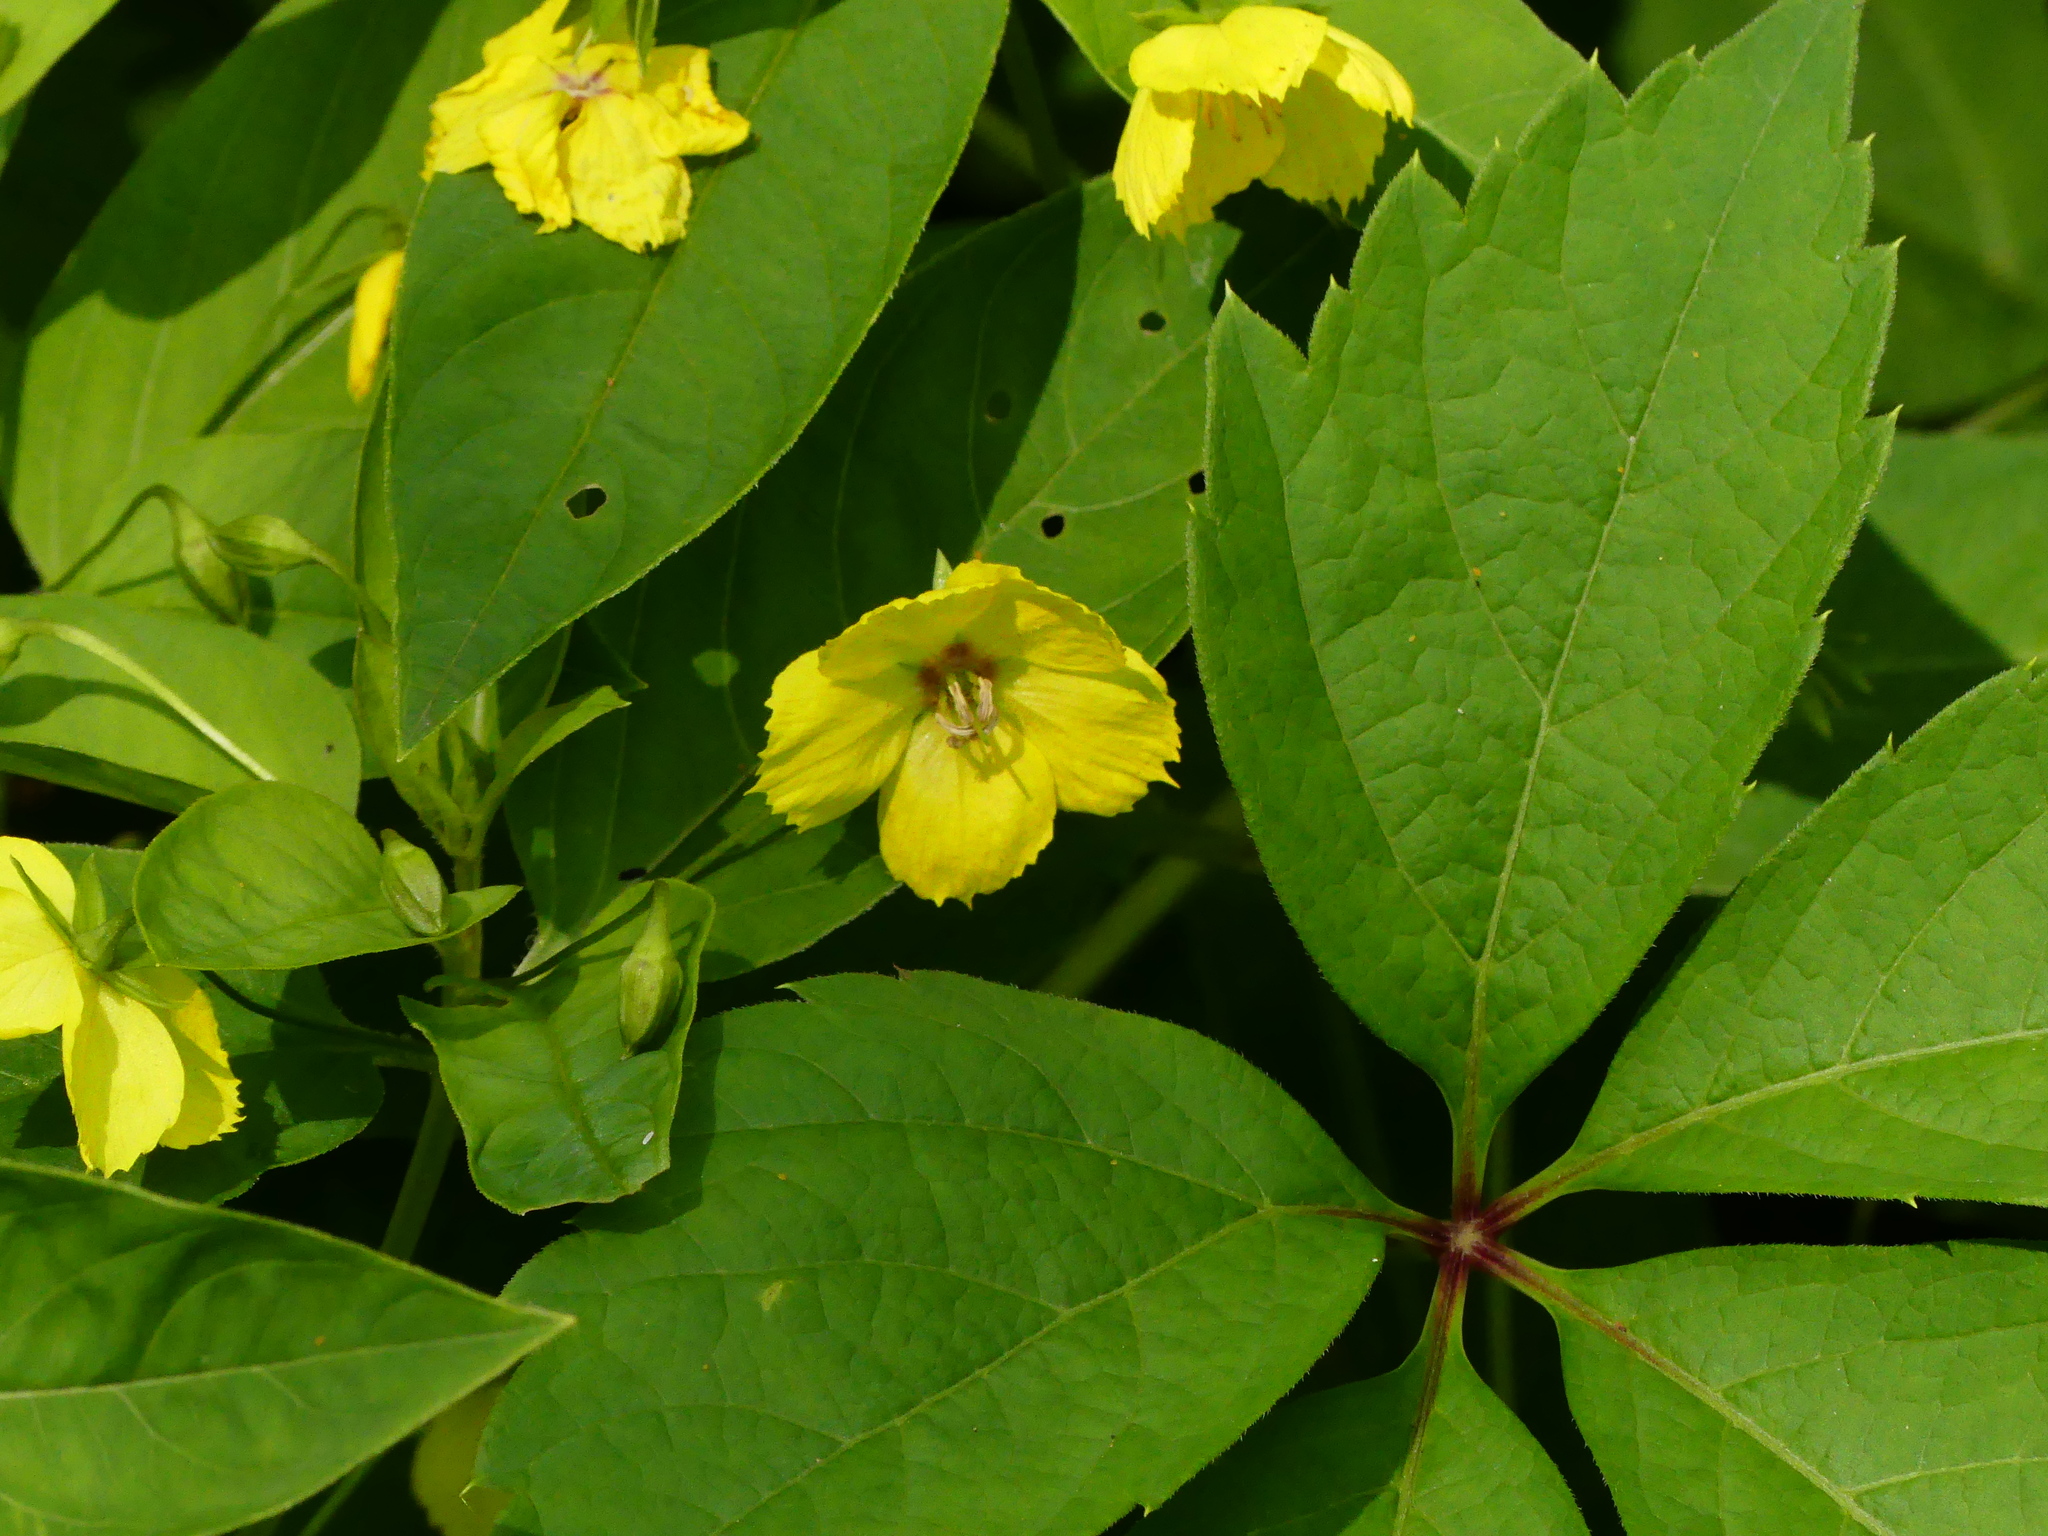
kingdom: Plantae
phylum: Tracheophyta
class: Magnoliopsida
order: Ericales
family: Primulaceae
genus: Lysimachia
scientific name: Lysimachia ciliata
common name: Fringed loosestrife
